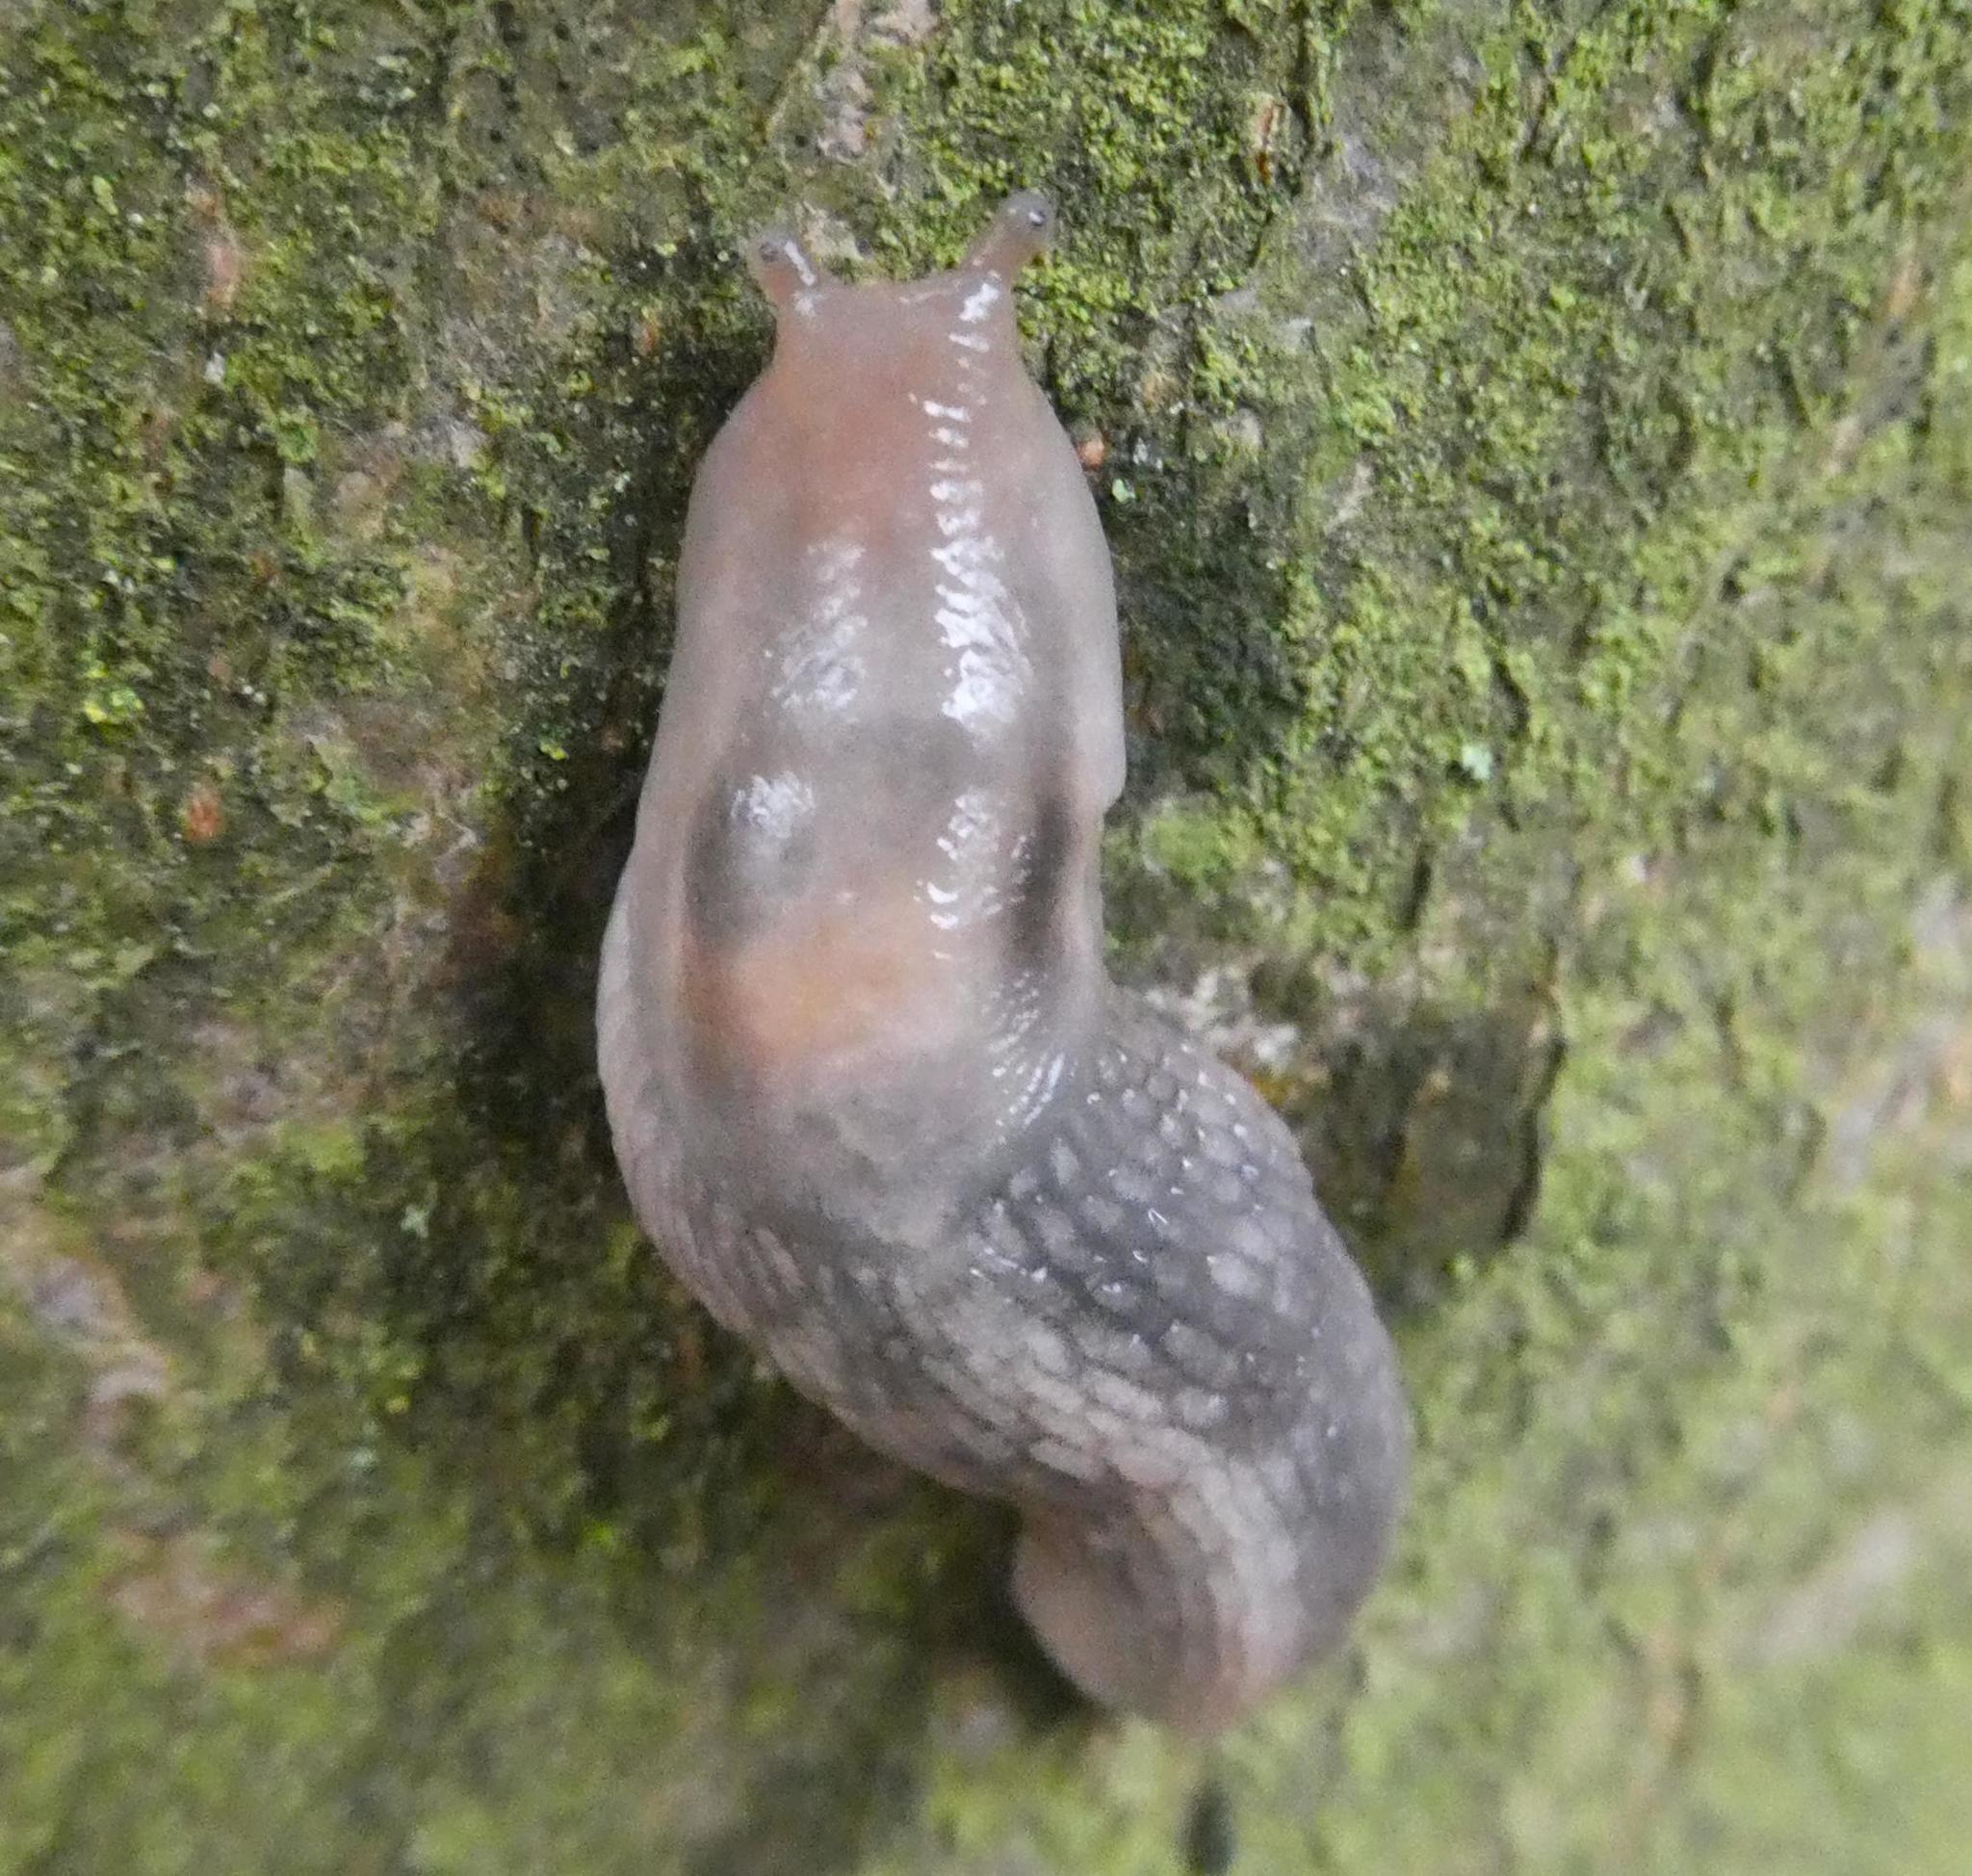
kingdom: Animalia
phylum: Mollusca
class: Gastropoda
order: Stylommatophora
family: Limacidae
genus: Lehmannia
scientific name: Lehmannia marginata
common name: Tree slug
